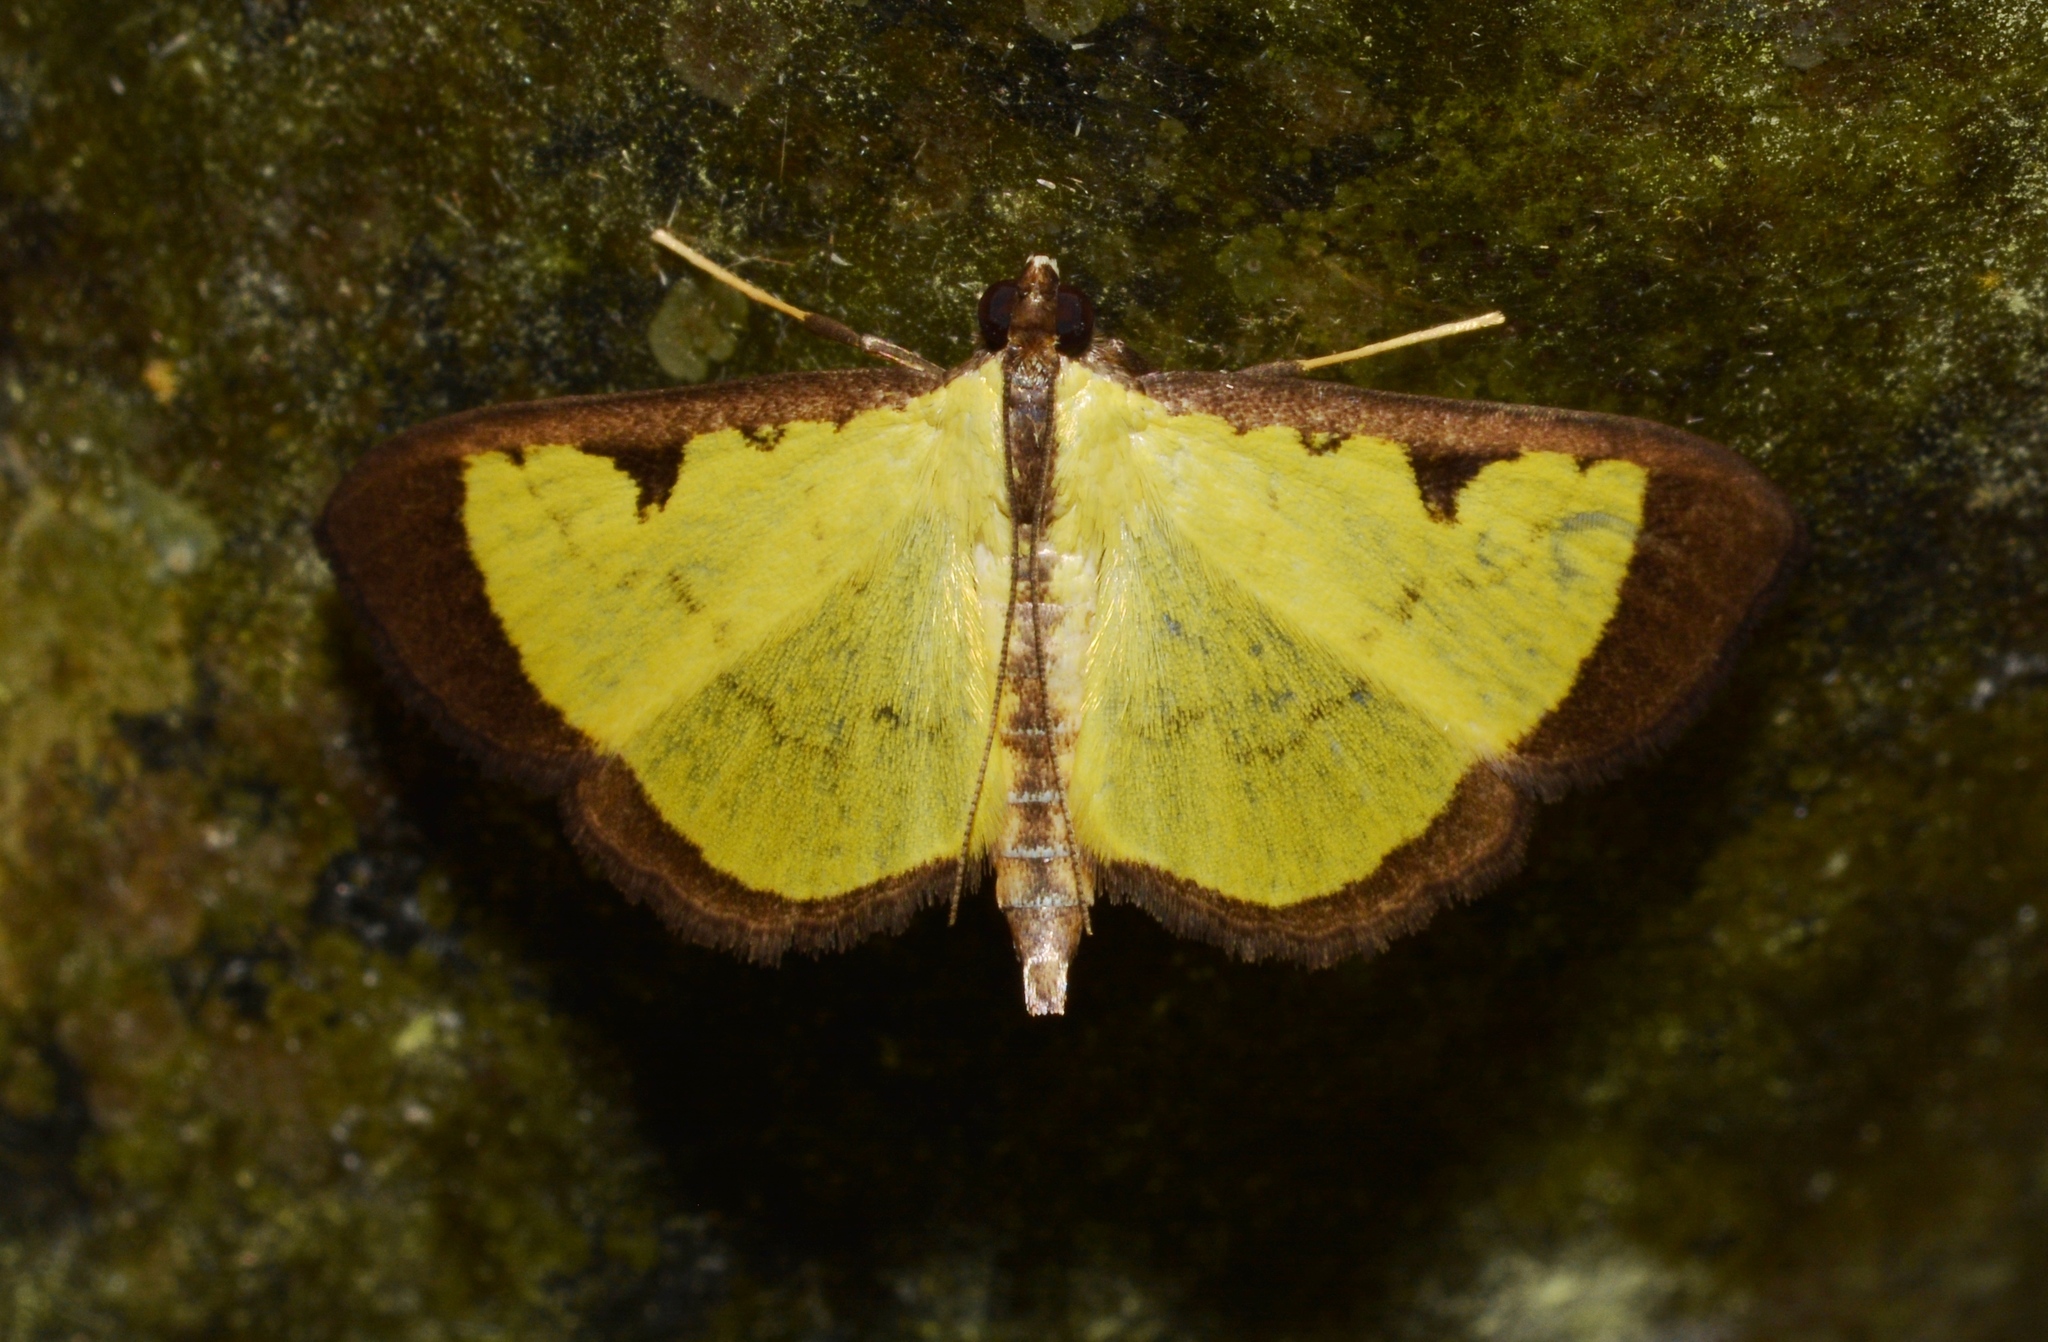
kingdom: Animalia
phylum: Arthropoda
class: Insecta
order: Lepidoptera
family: Crambidae
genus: Goniorhynchus
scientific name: Goniorhynchus
